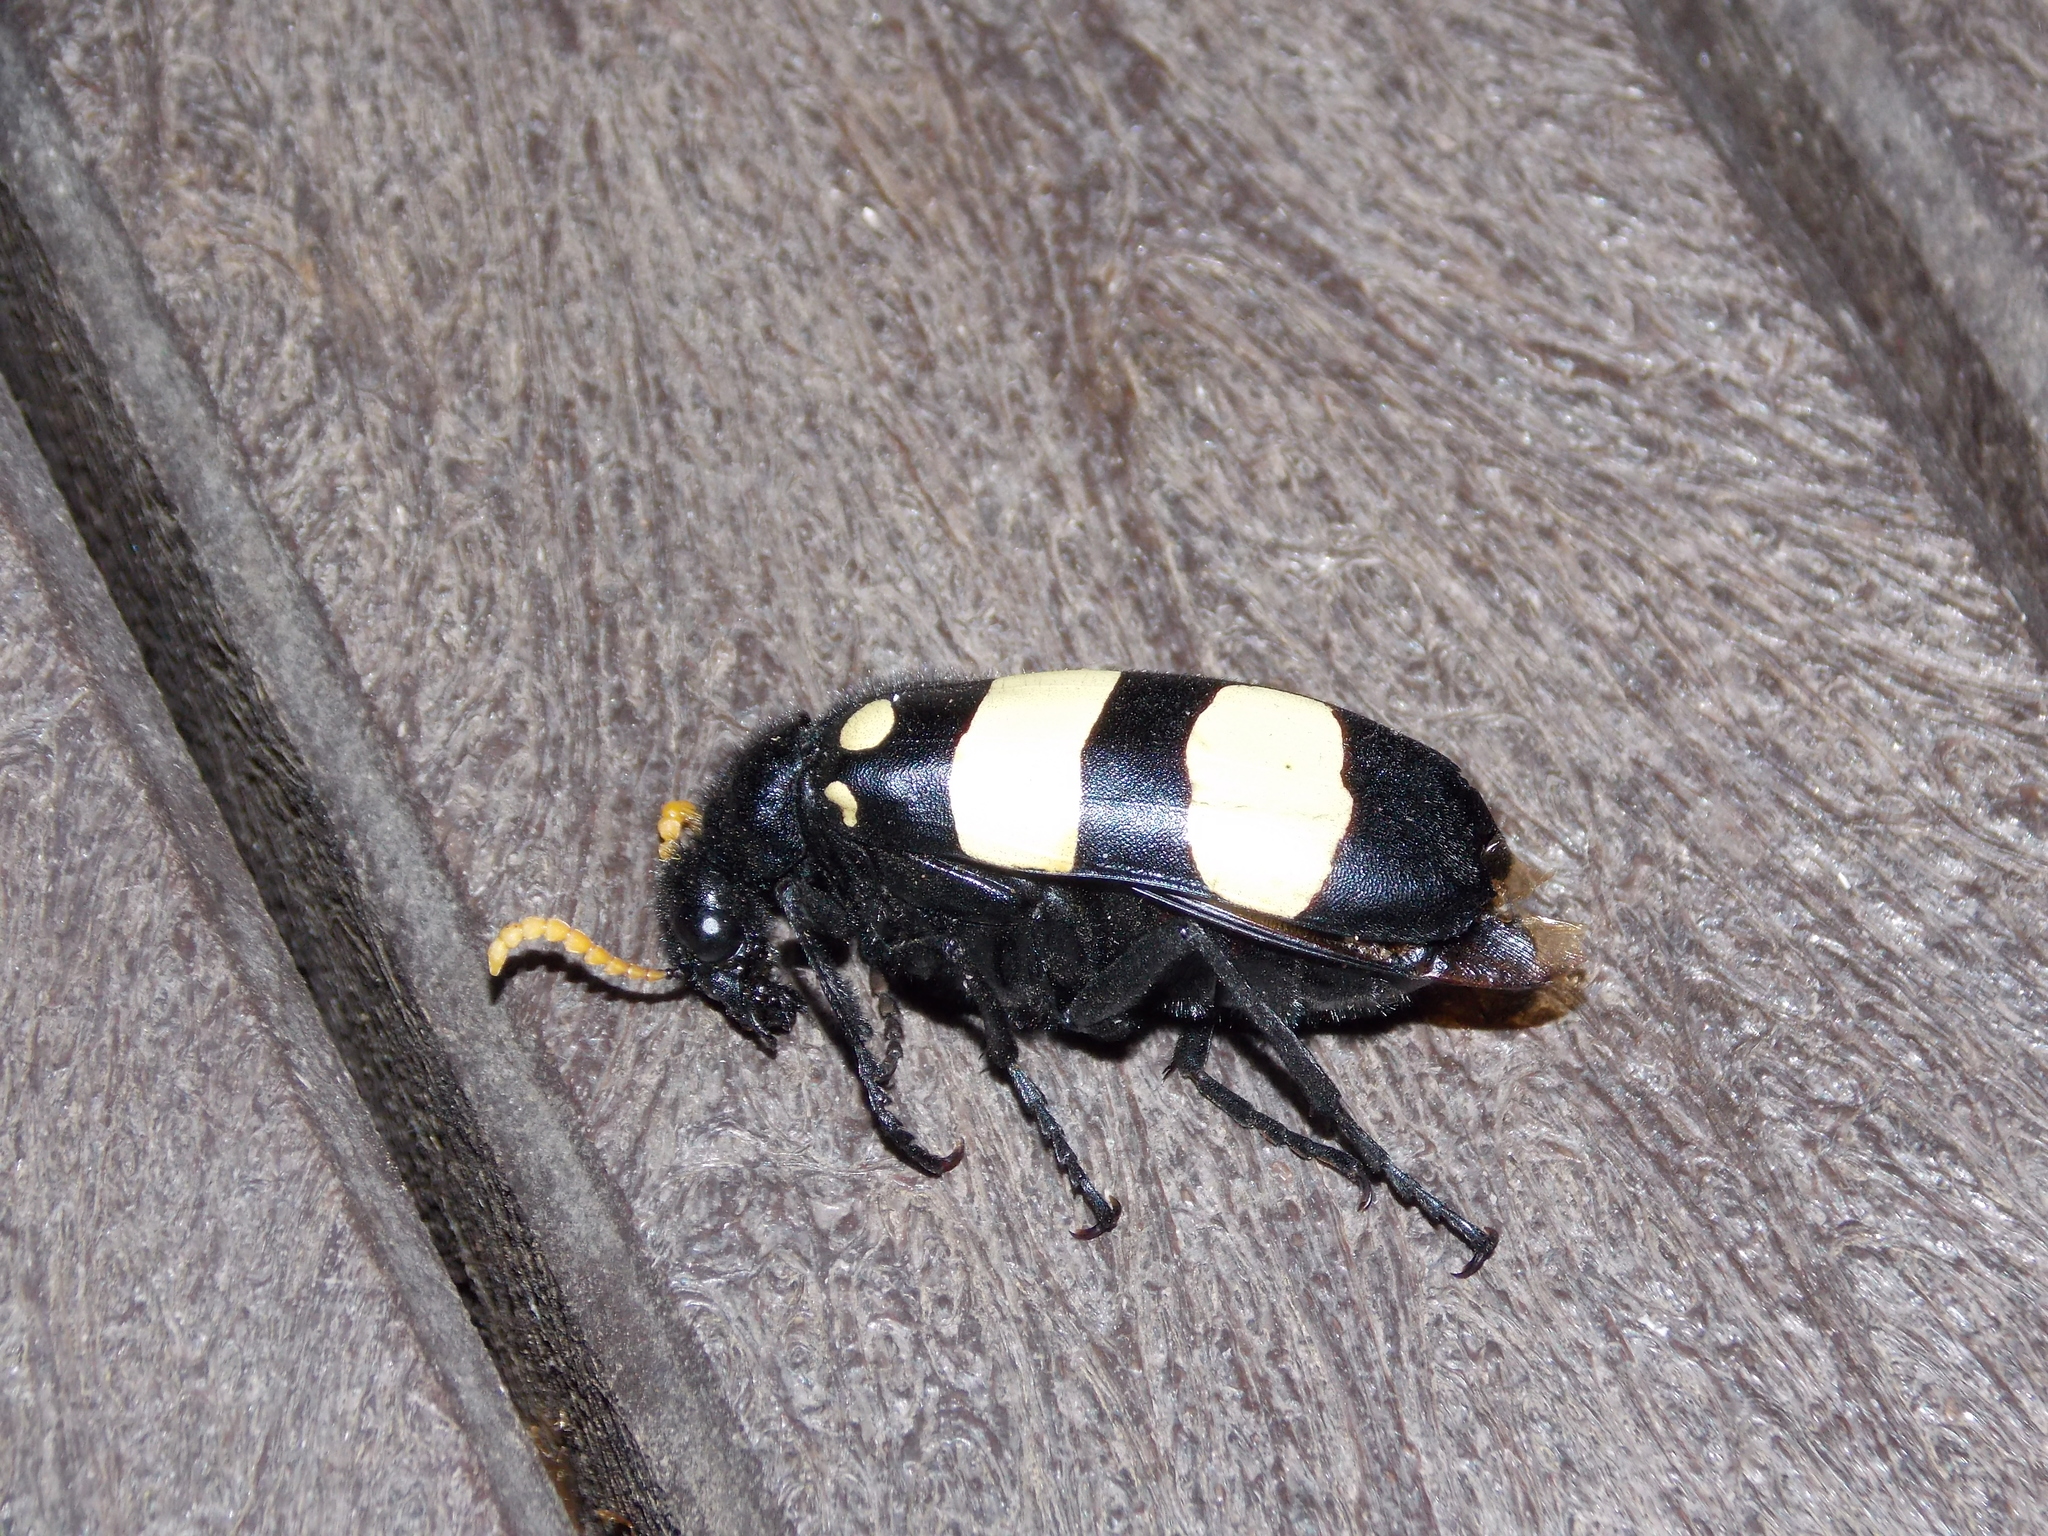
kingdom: Animalia
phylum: Arthropoda
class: Insecta
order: Coleoptera
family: Meloidae
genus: Hycleus
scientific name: Hycleus
